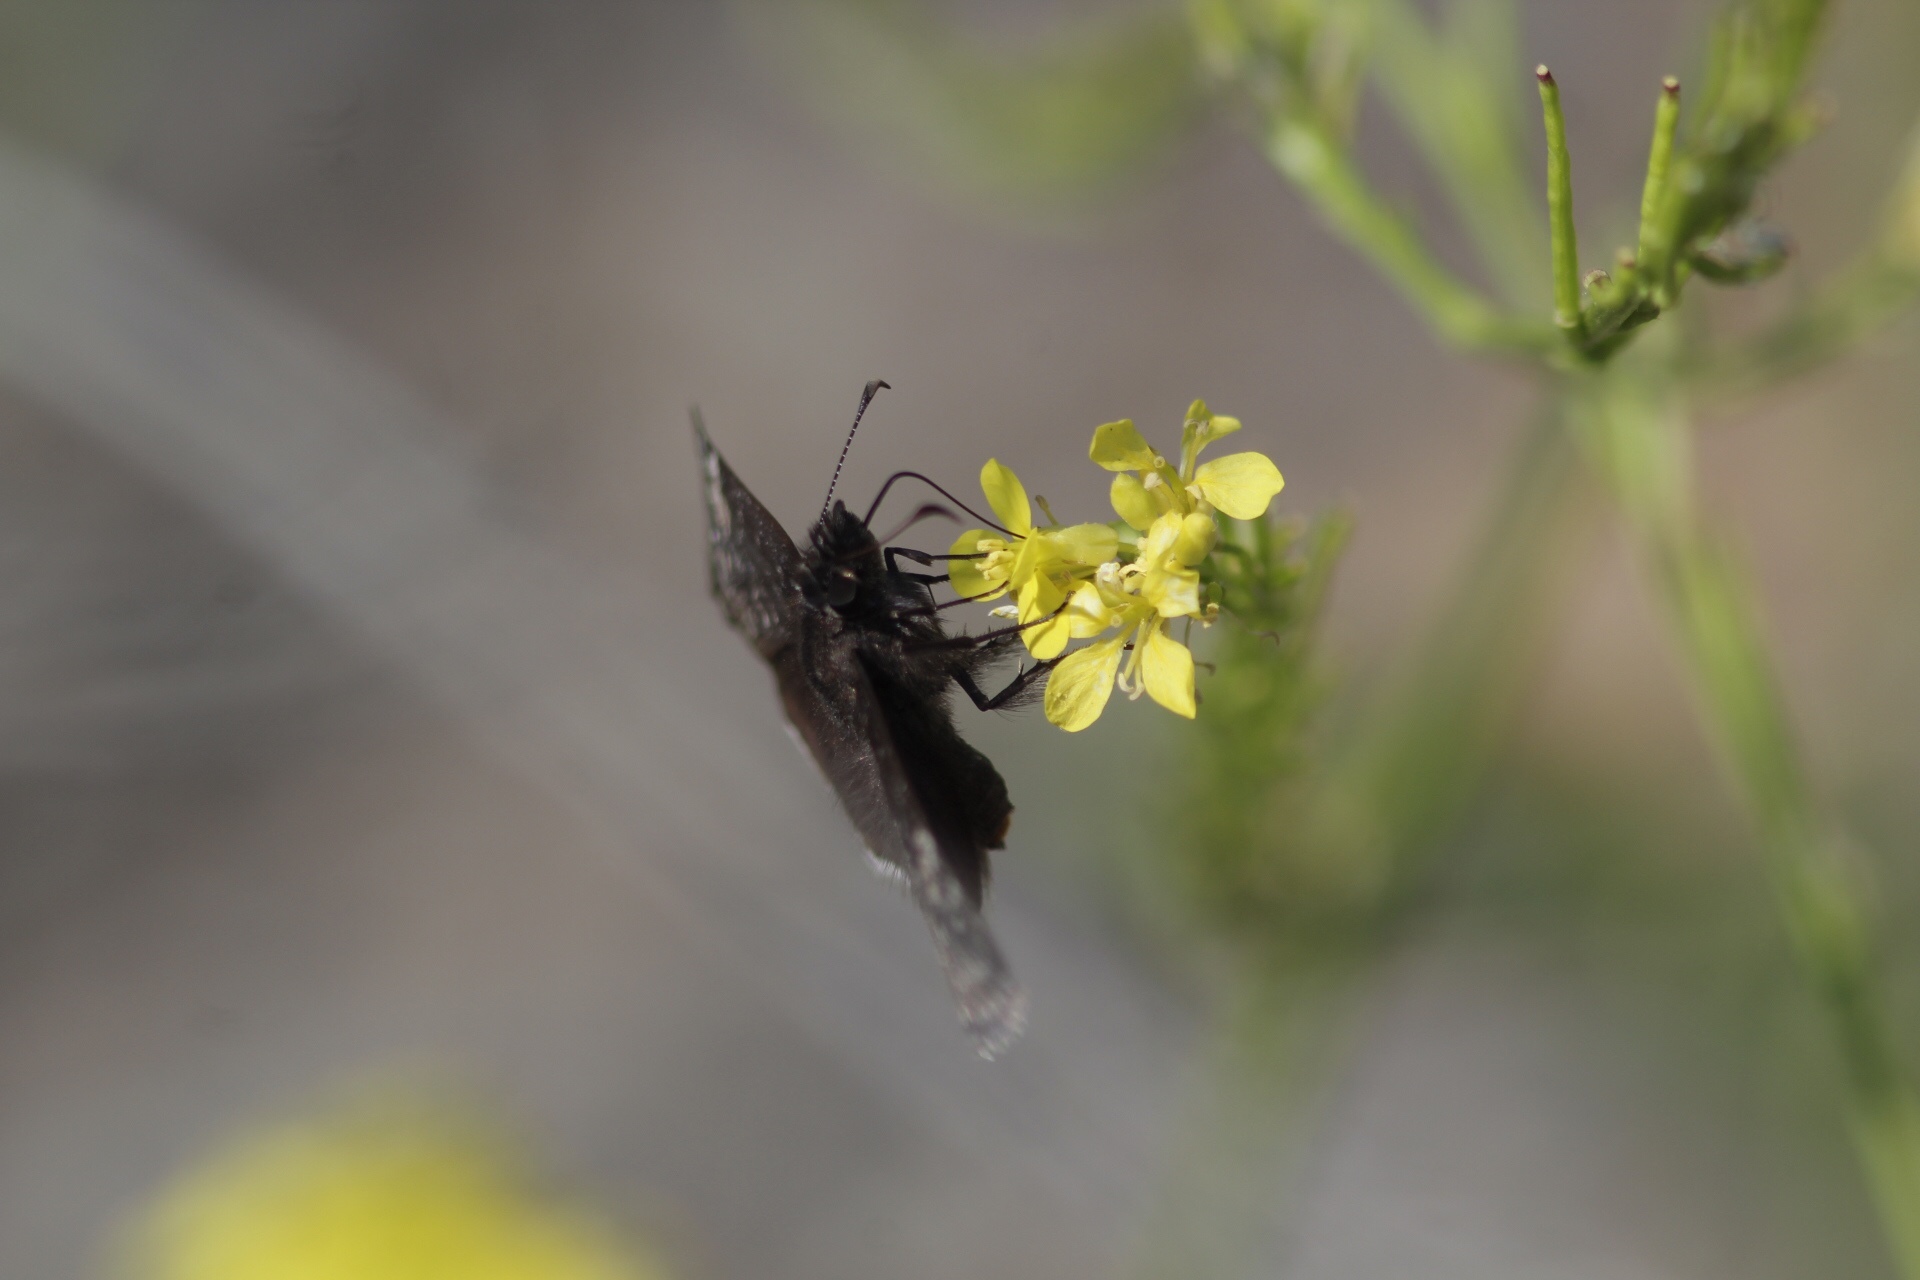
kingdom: Animalia
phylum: Arthropoda
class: Insecta
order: Lepidoptera
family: Hesperiidae
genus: Erynnis
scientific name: Erynnis funeralis
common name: Funereal duskywing
